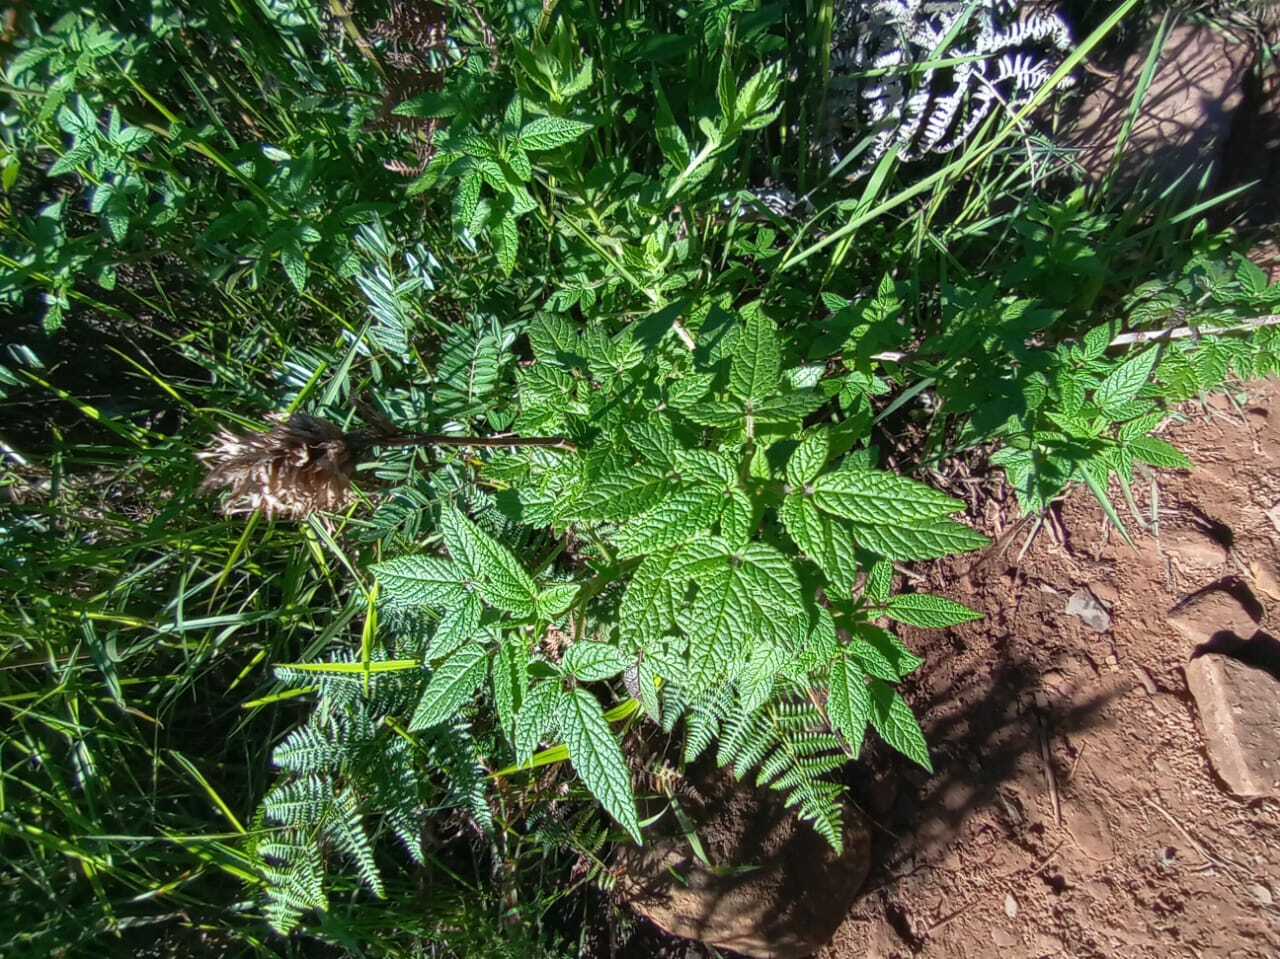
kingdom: Plantae
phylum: Tracheophyta
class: Magnoliopsida
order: Lamiales
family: Lamiaceae
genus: Cedronella
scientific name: Cedronella canariensis
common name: Canary islands balm
